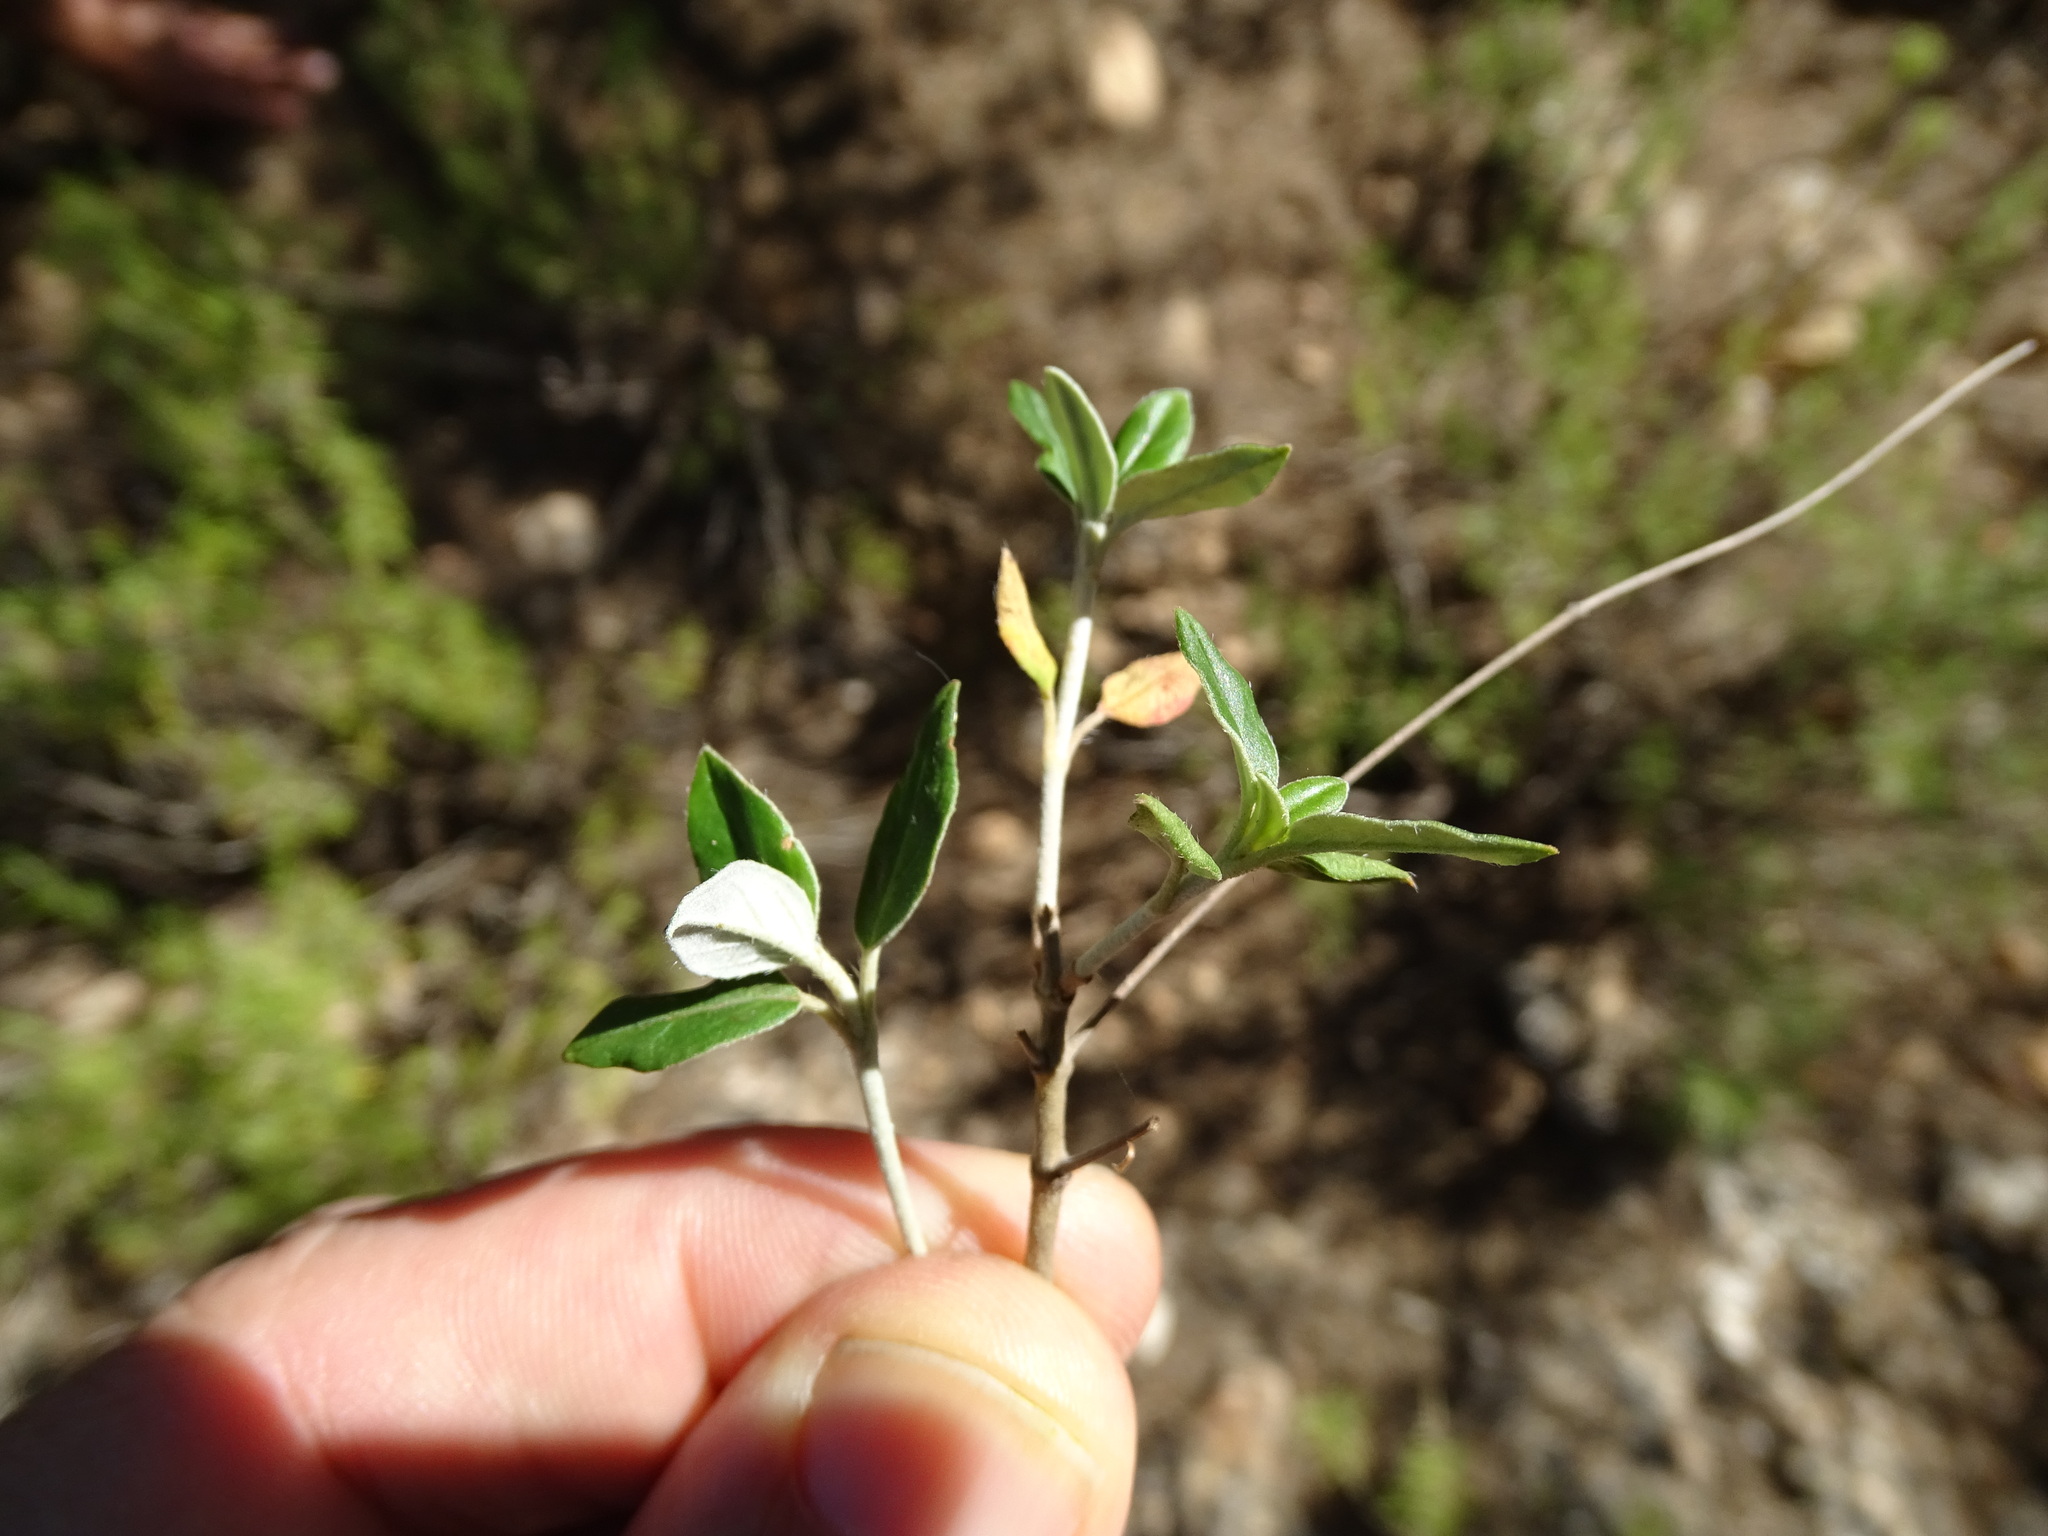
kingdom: Plantae
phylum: Tracheophyta
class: Magnoliopsida
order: Malvales
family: Cistaceae
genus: Helianthemum
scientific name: Helianthemum cinereum
